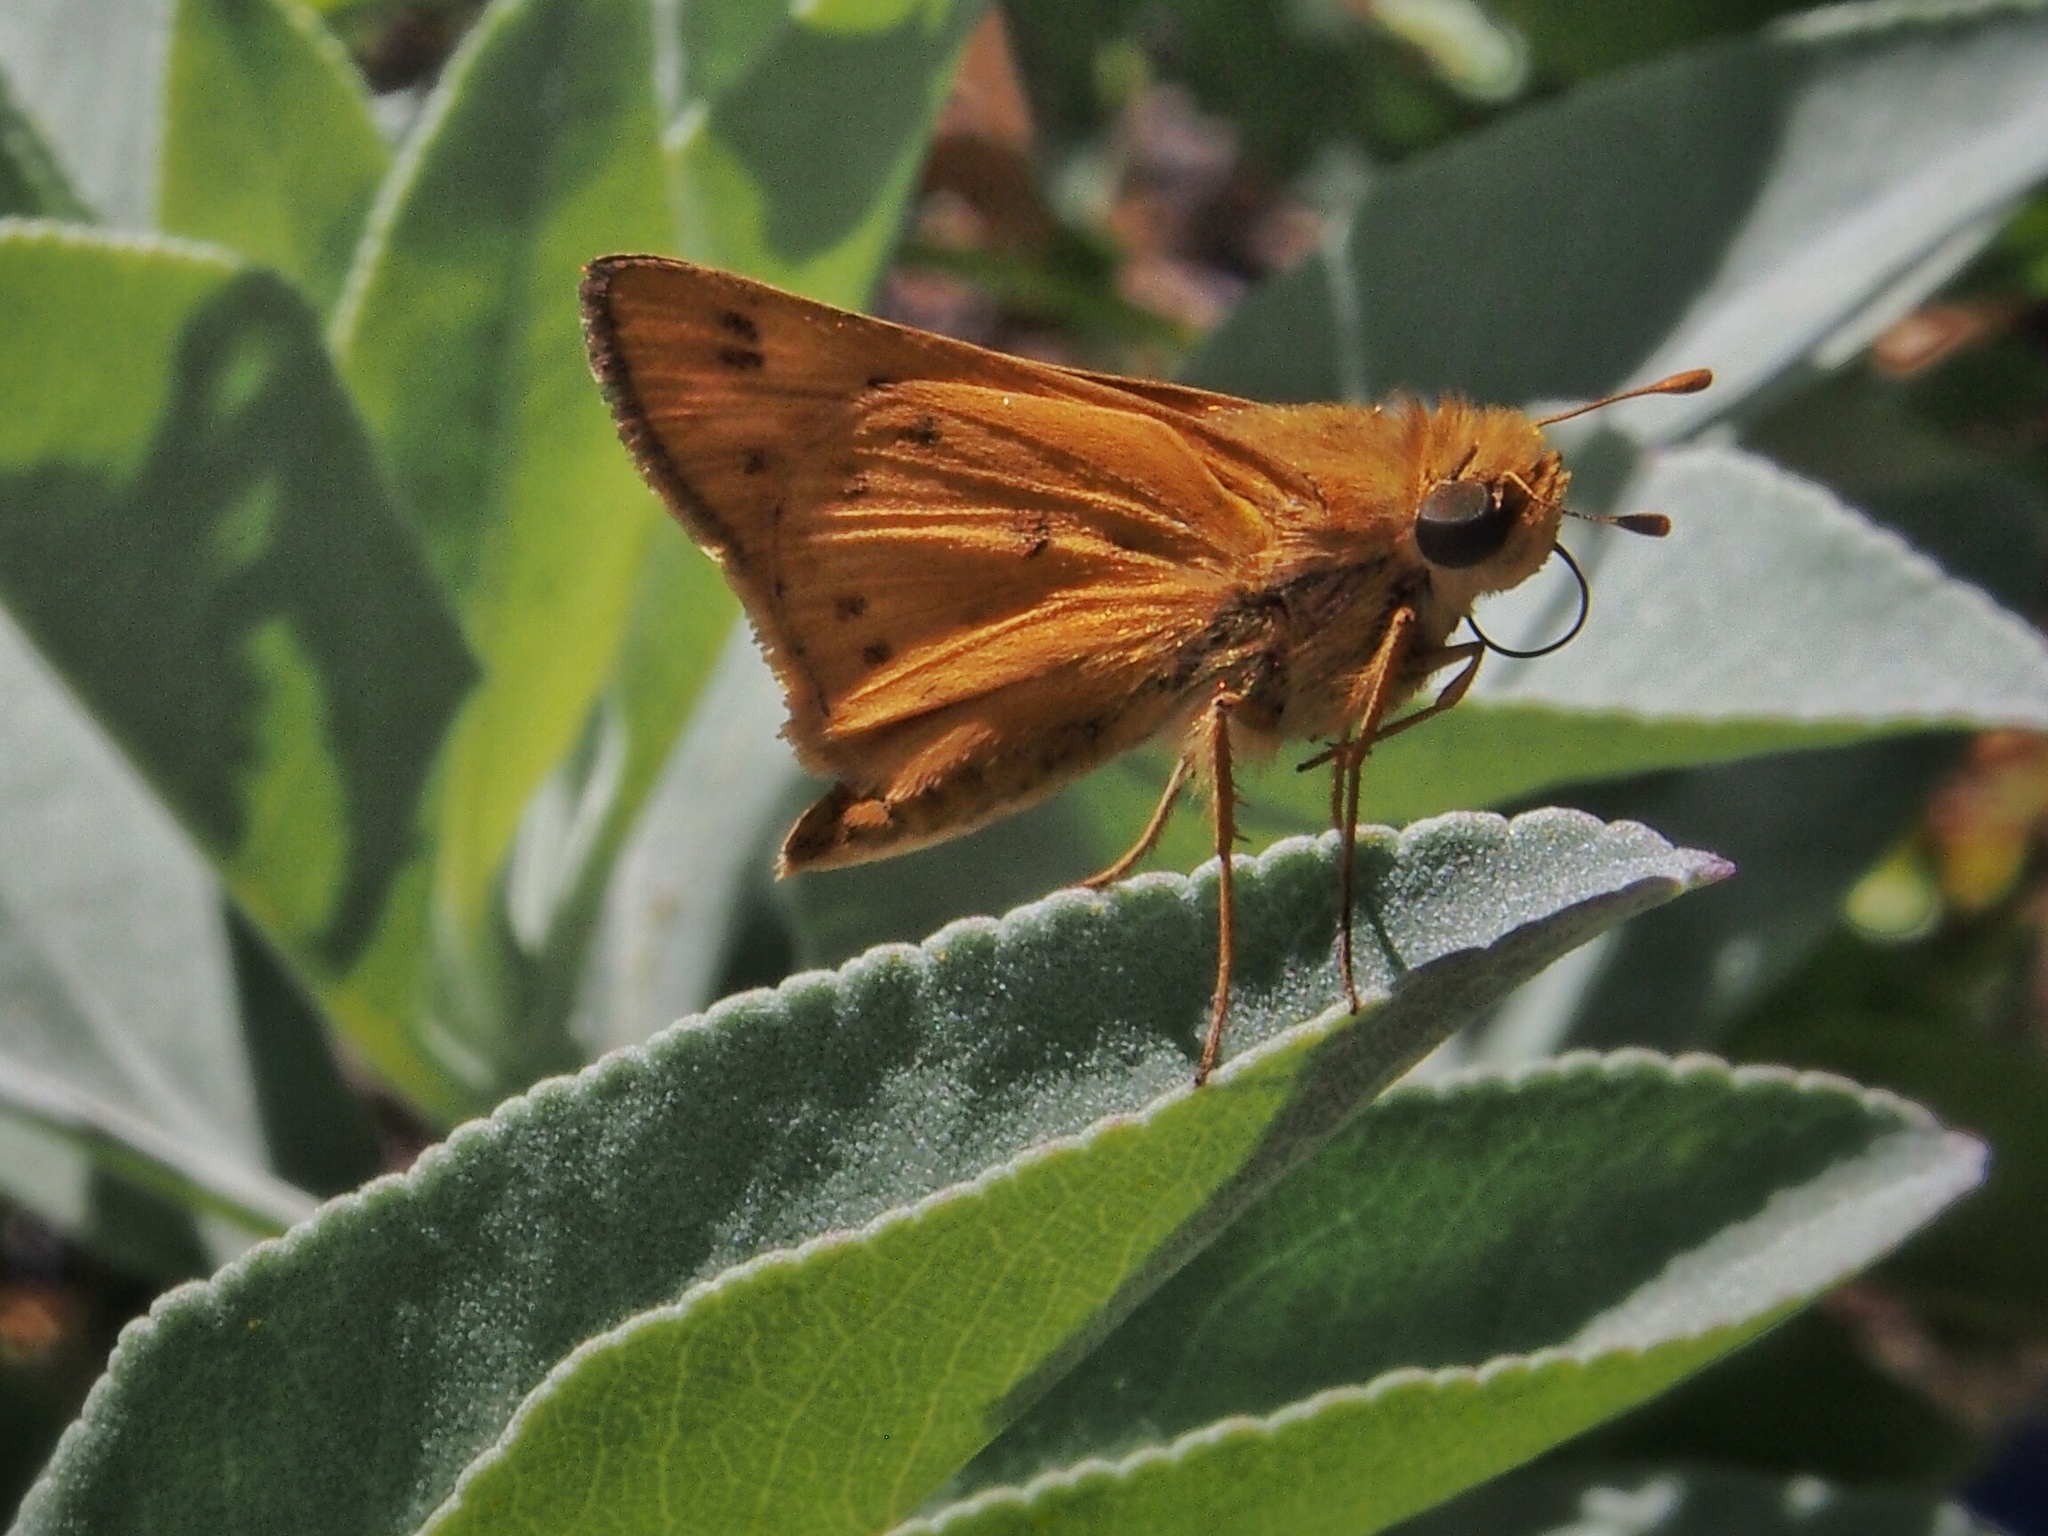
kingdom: Animalia
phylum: Arthropoda
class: Insecta
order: Lepidoptera
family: Hesperiidae
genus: Hylephila
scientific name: Hylephila phyleus
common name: Fiery skipper
